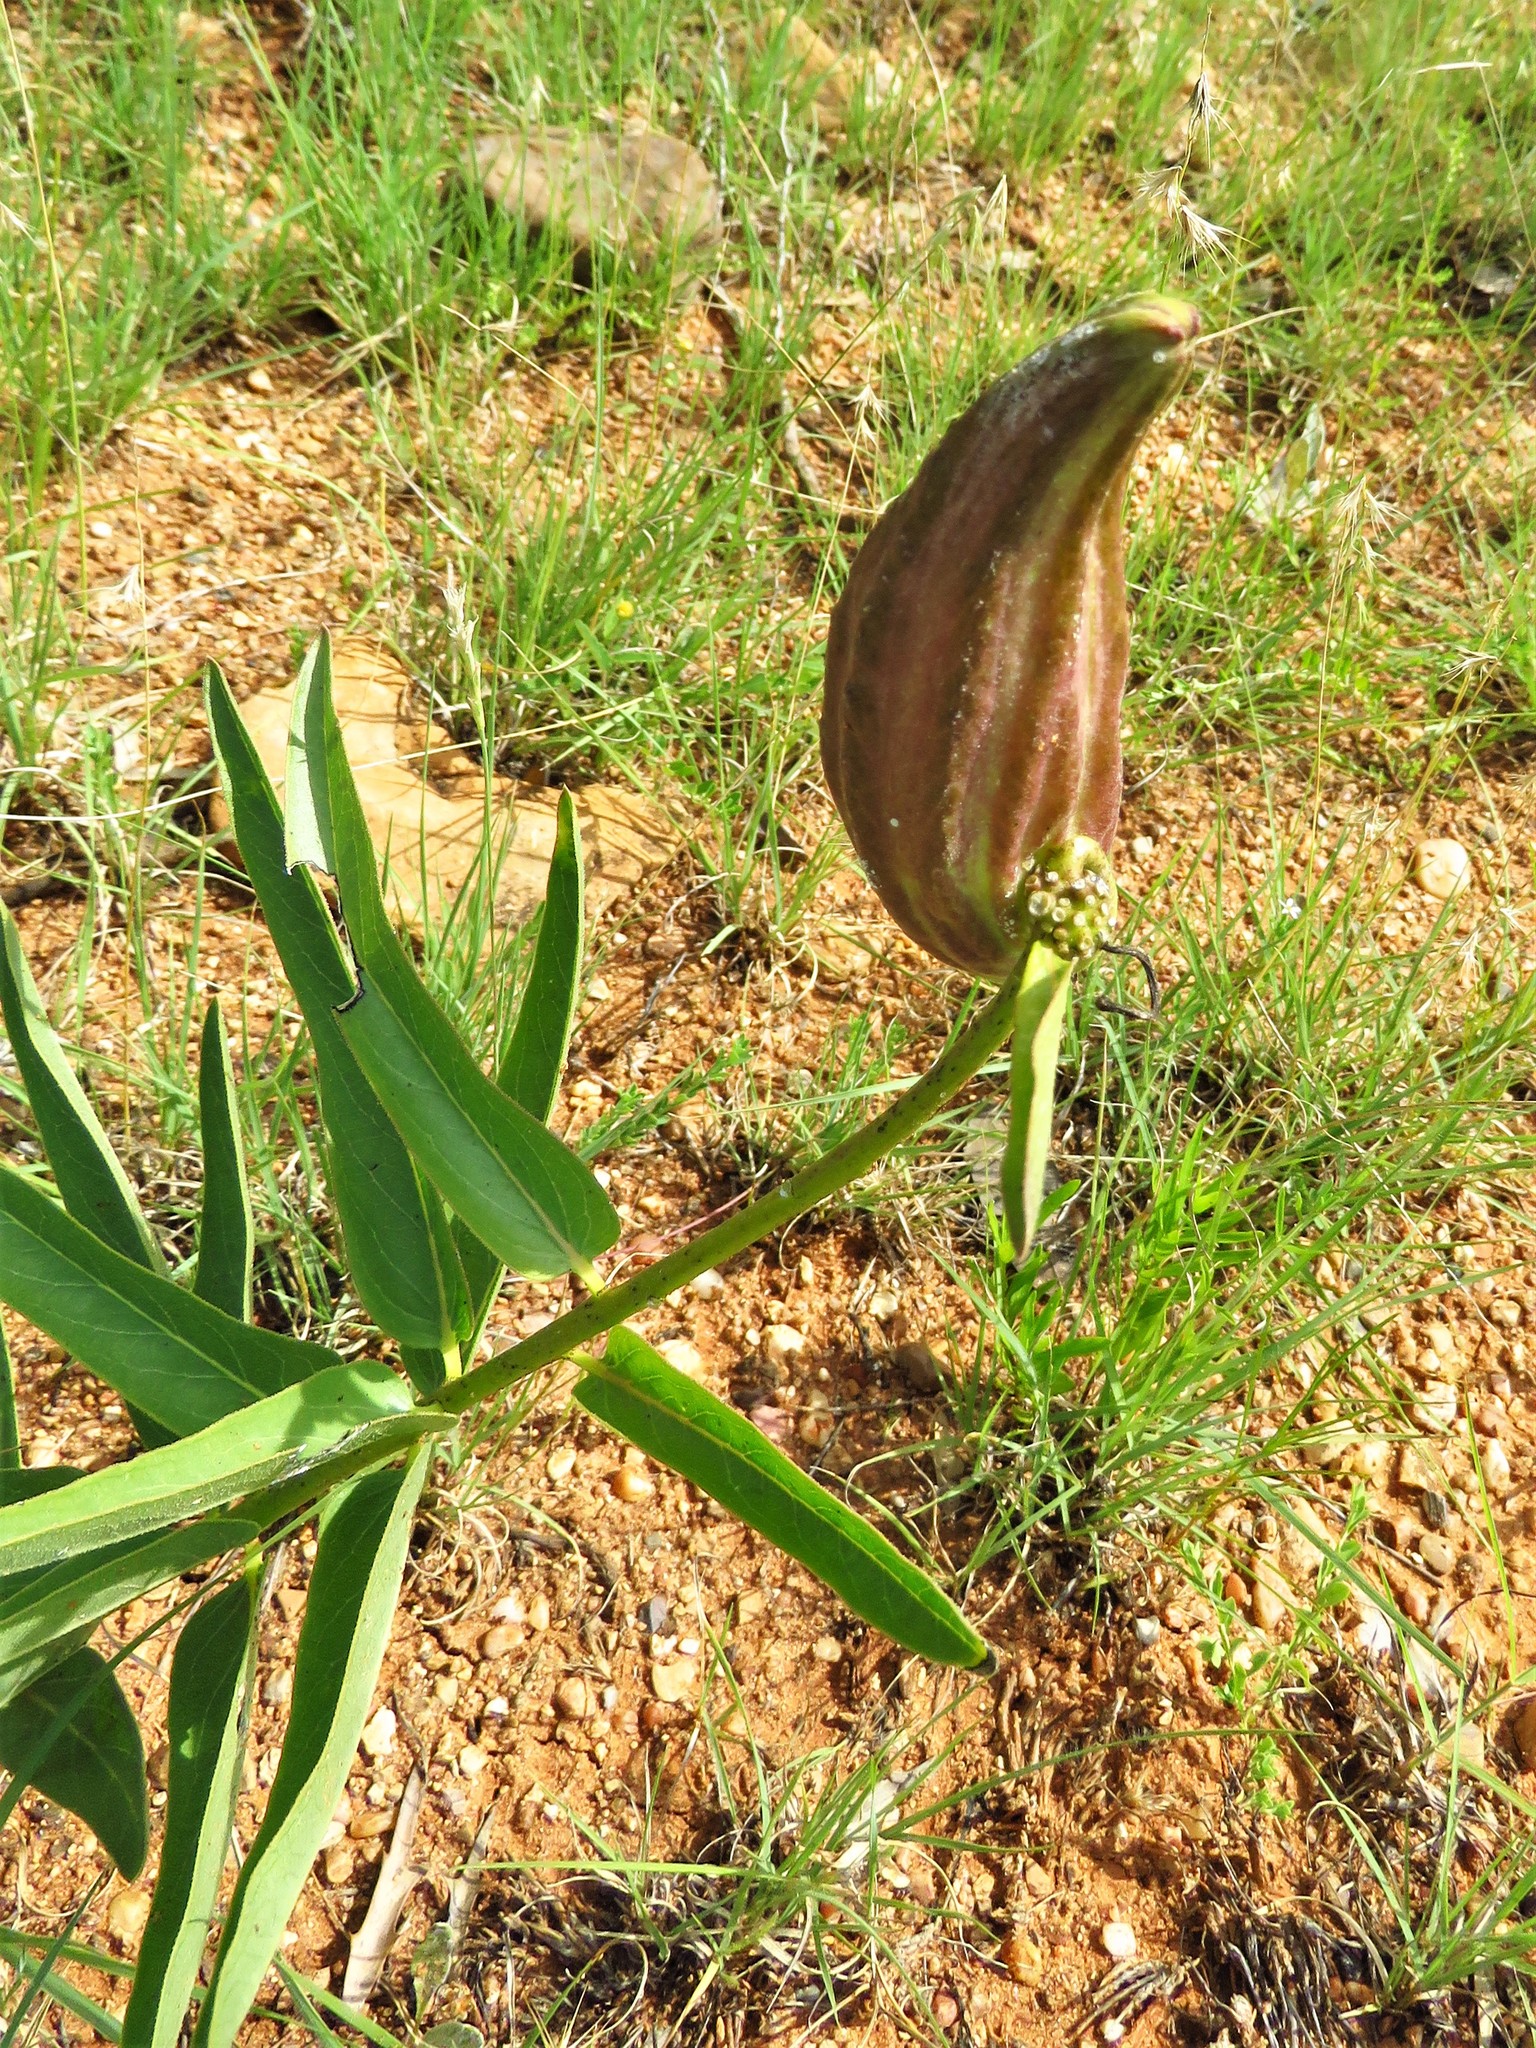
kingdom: Plantae
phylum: Tracheophyta
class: Magnoliopsida
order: Gentianales
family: Apocynaceae
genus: Asclepias
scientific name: Asclepias asperula
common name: Antelope horns
